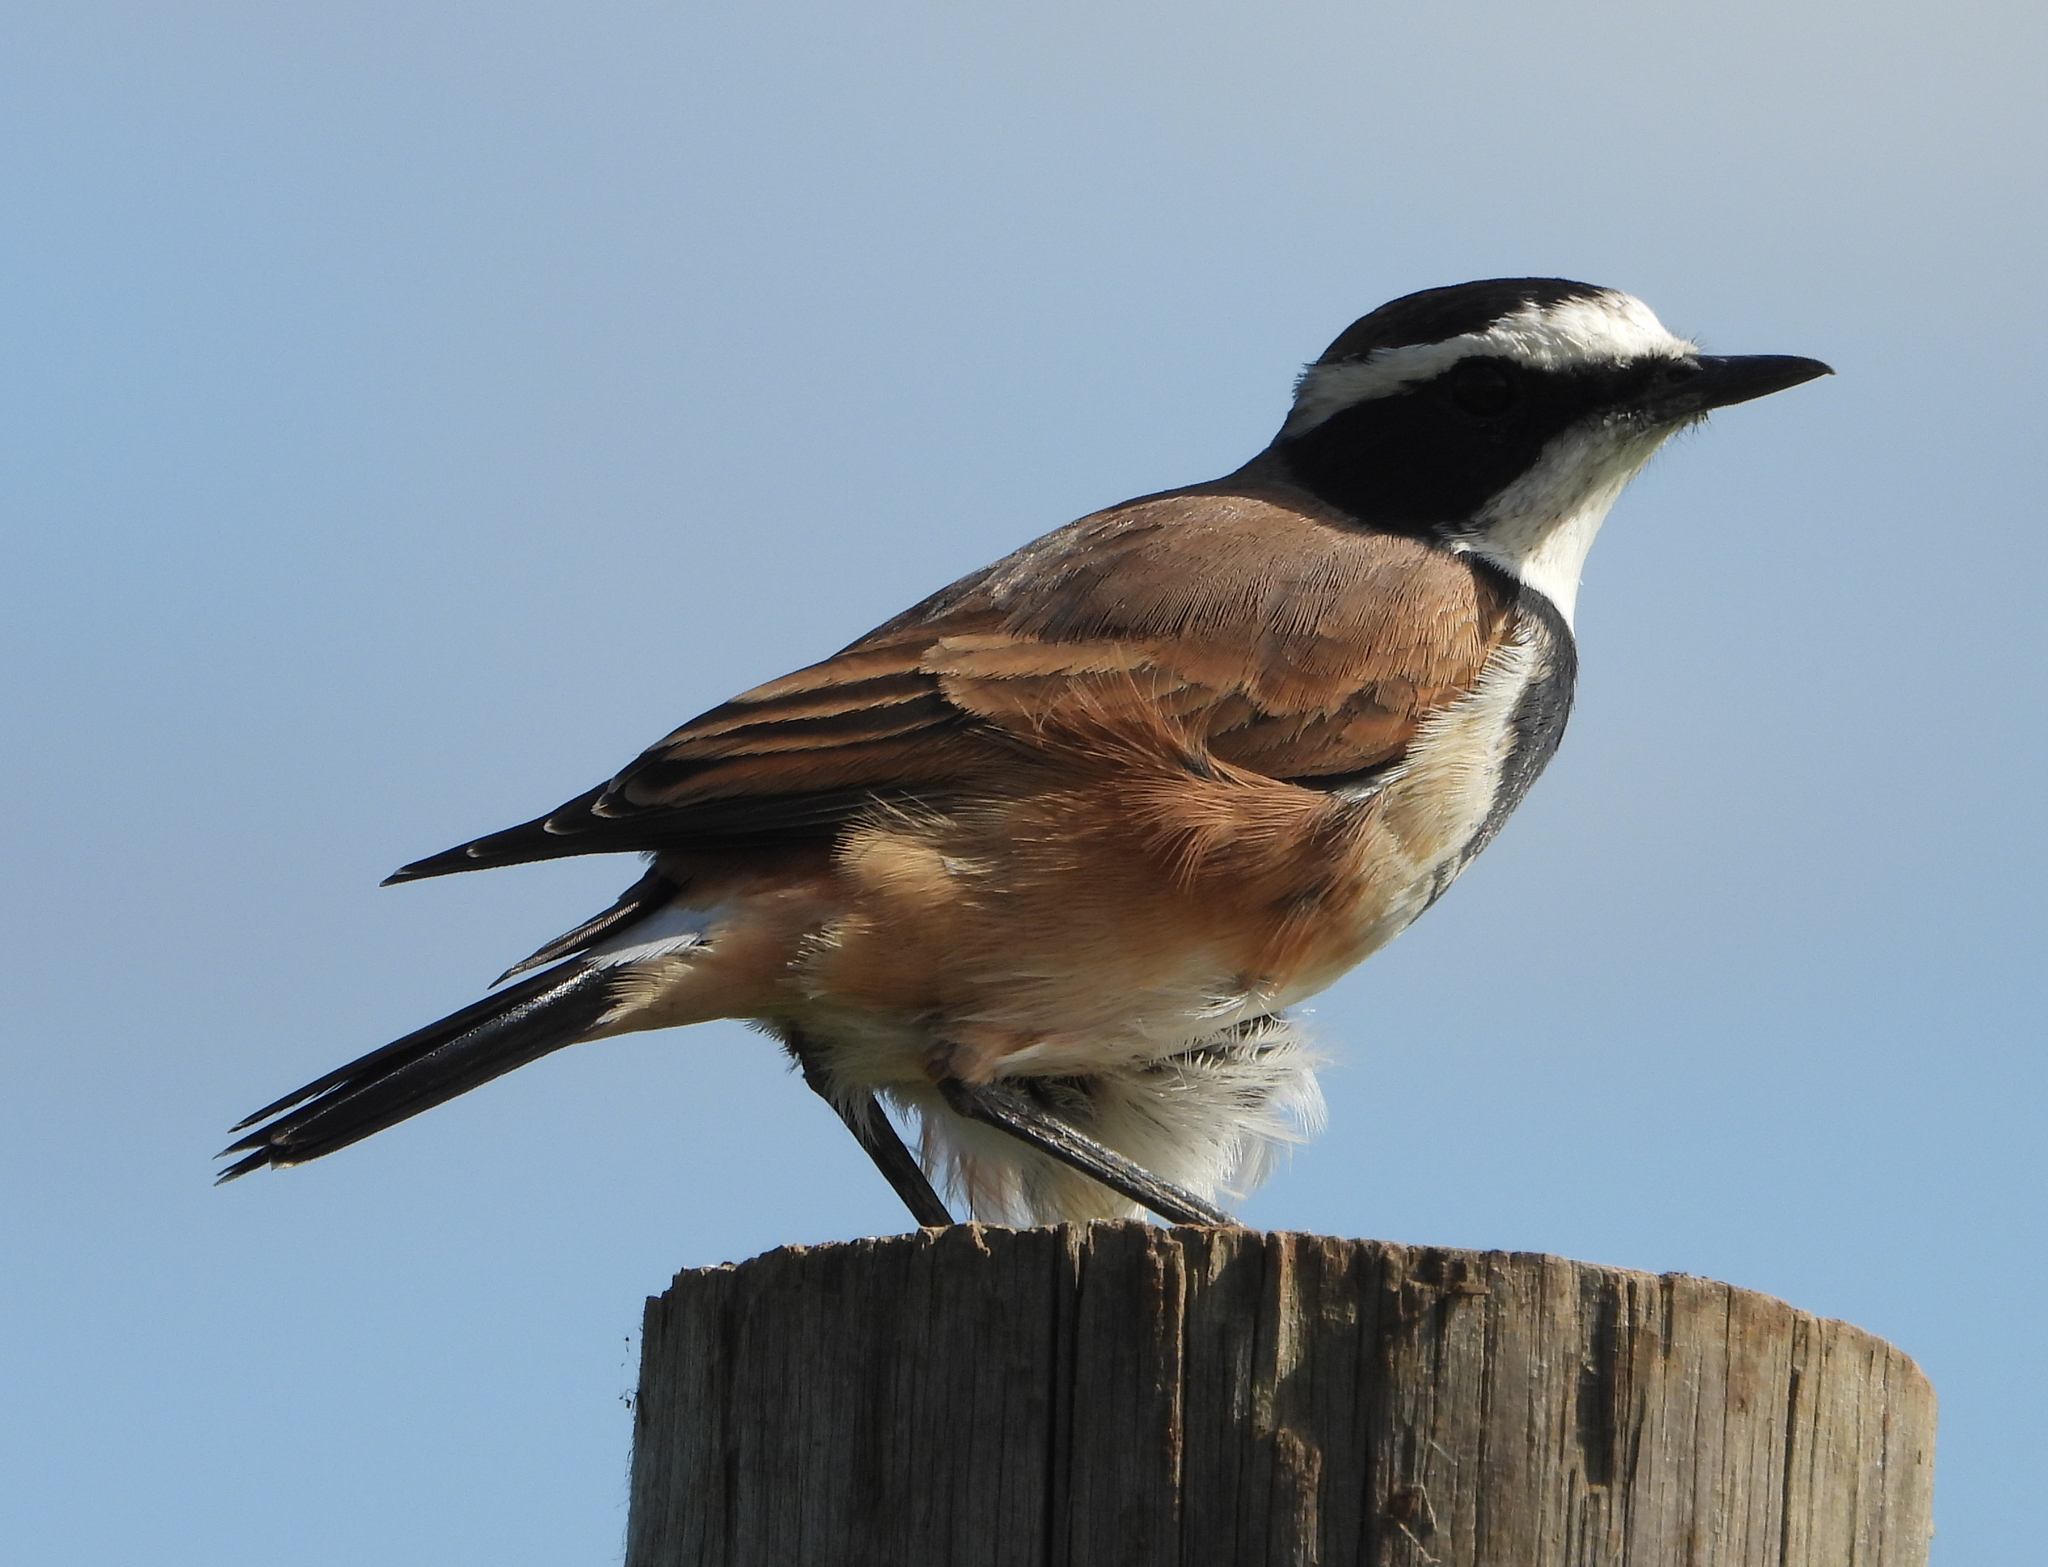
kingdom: Animalia
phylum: Chordata
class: Aves
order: Passeriformes
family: Muscicapidae
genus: Oenanthe
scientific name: Oenanthe pileata
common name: Capped wheatear
